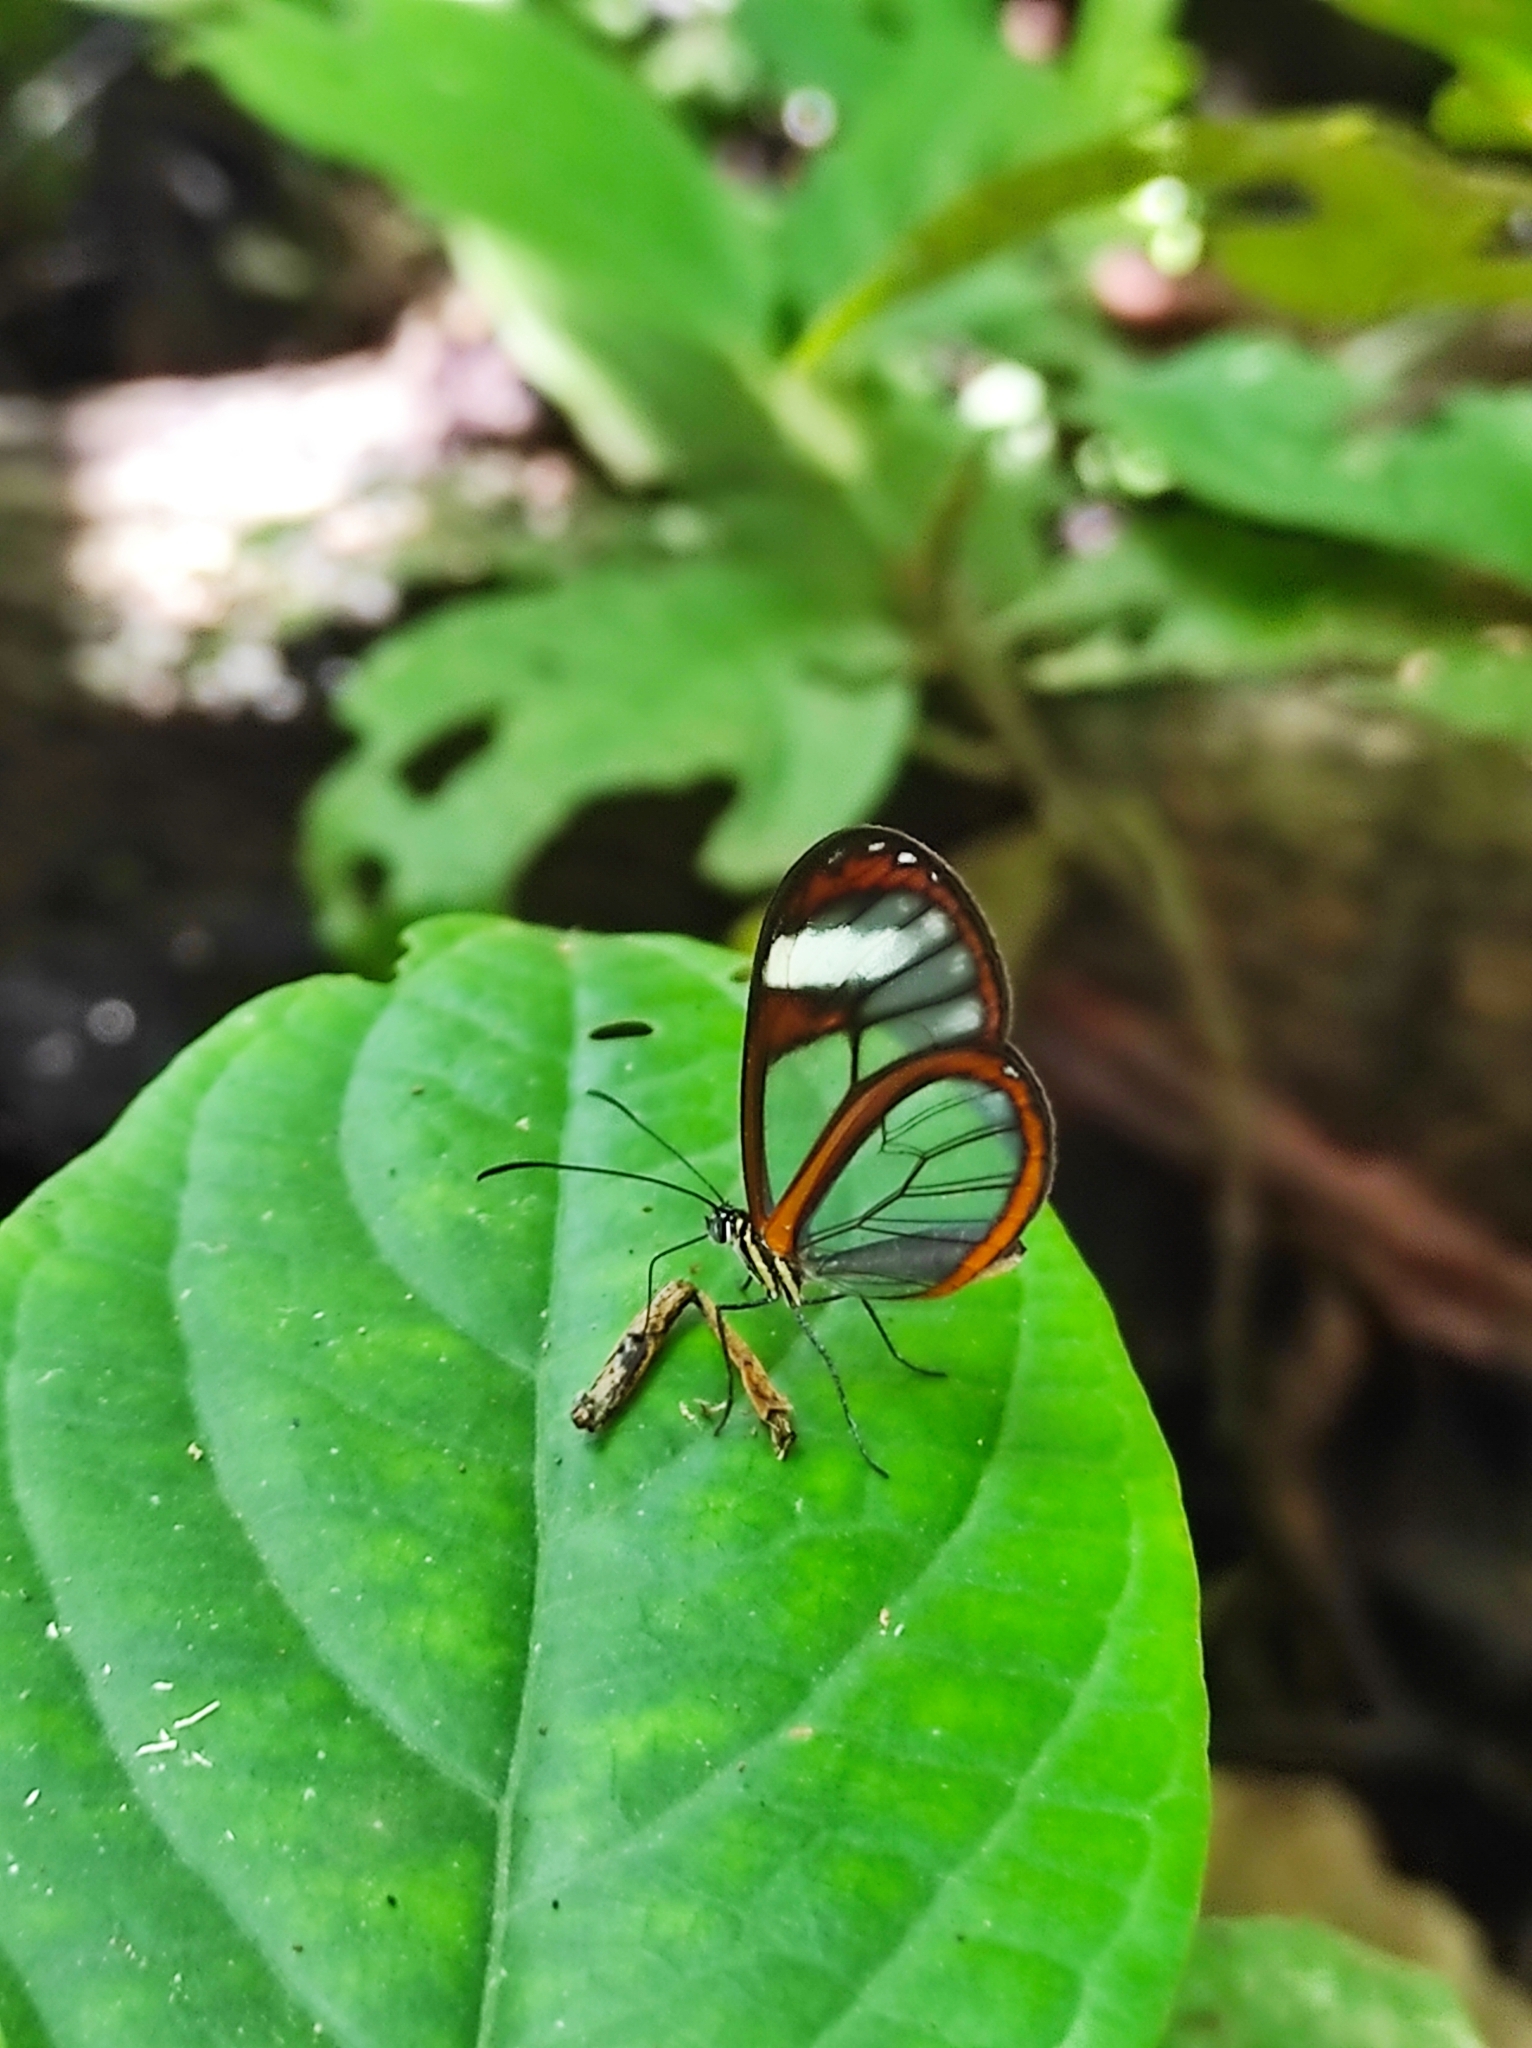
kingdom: Animalia
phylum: Arthropoda
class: Insecta
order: Lepidoptera
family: Nymphalidae
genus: Pteronymia
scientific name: Pteronymia cotytto
